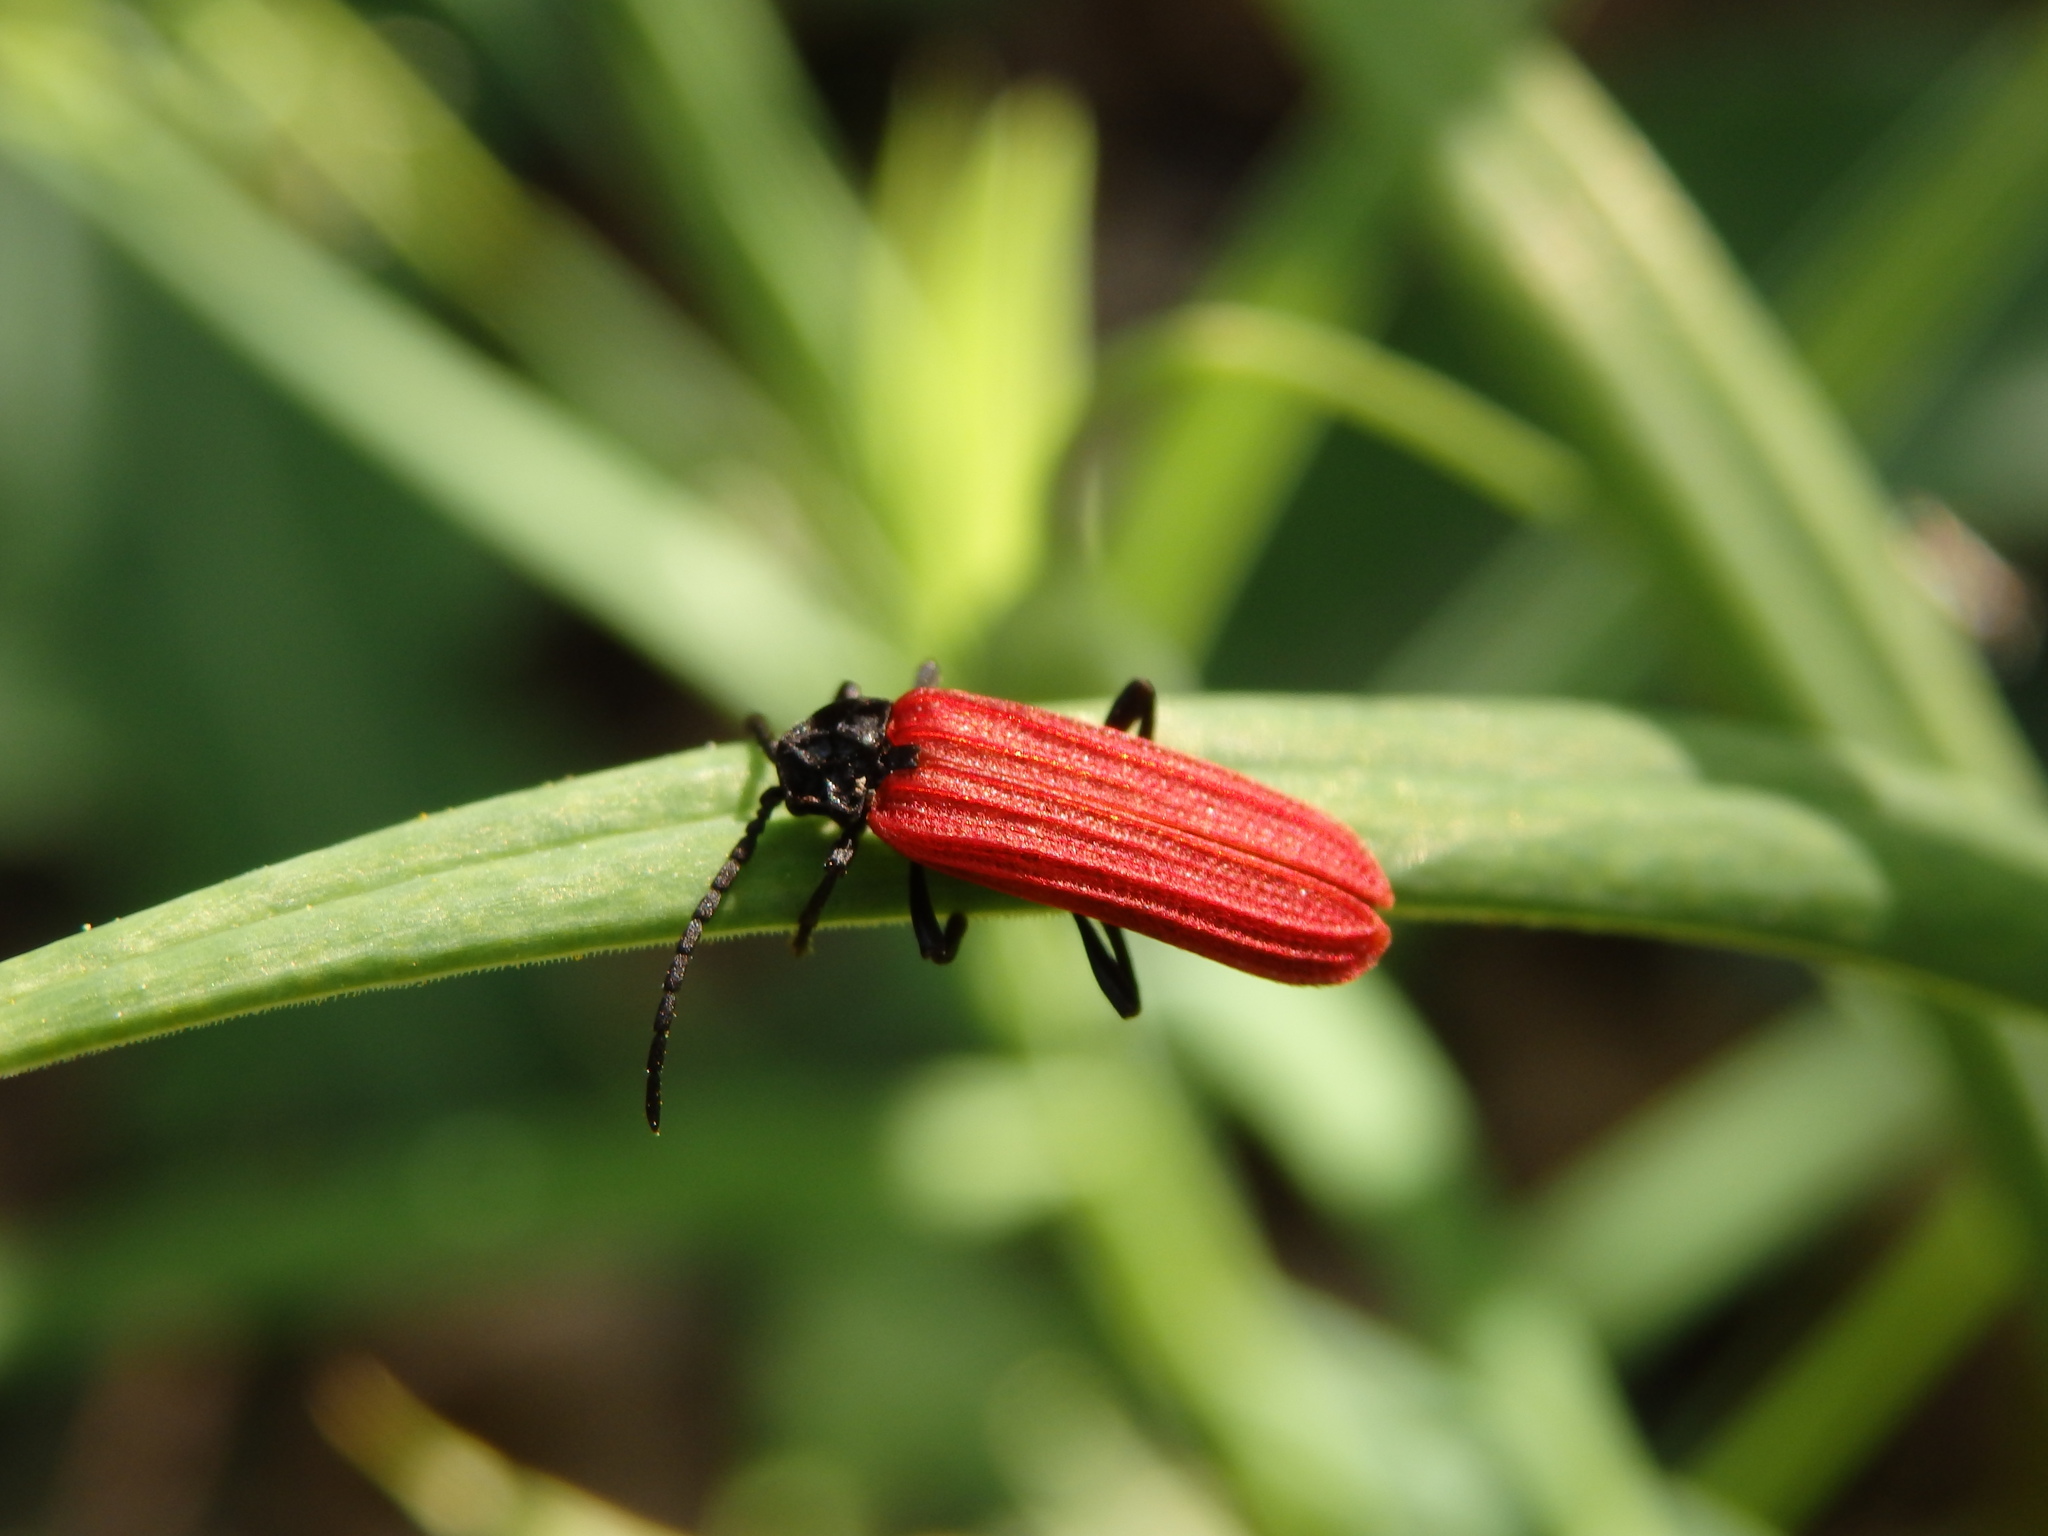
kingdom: Animalia
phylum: Arthropoda
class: Insecta
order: Coleoptera
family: Lycidae
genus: Benibotarus
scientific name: Benibotarus alternatus
